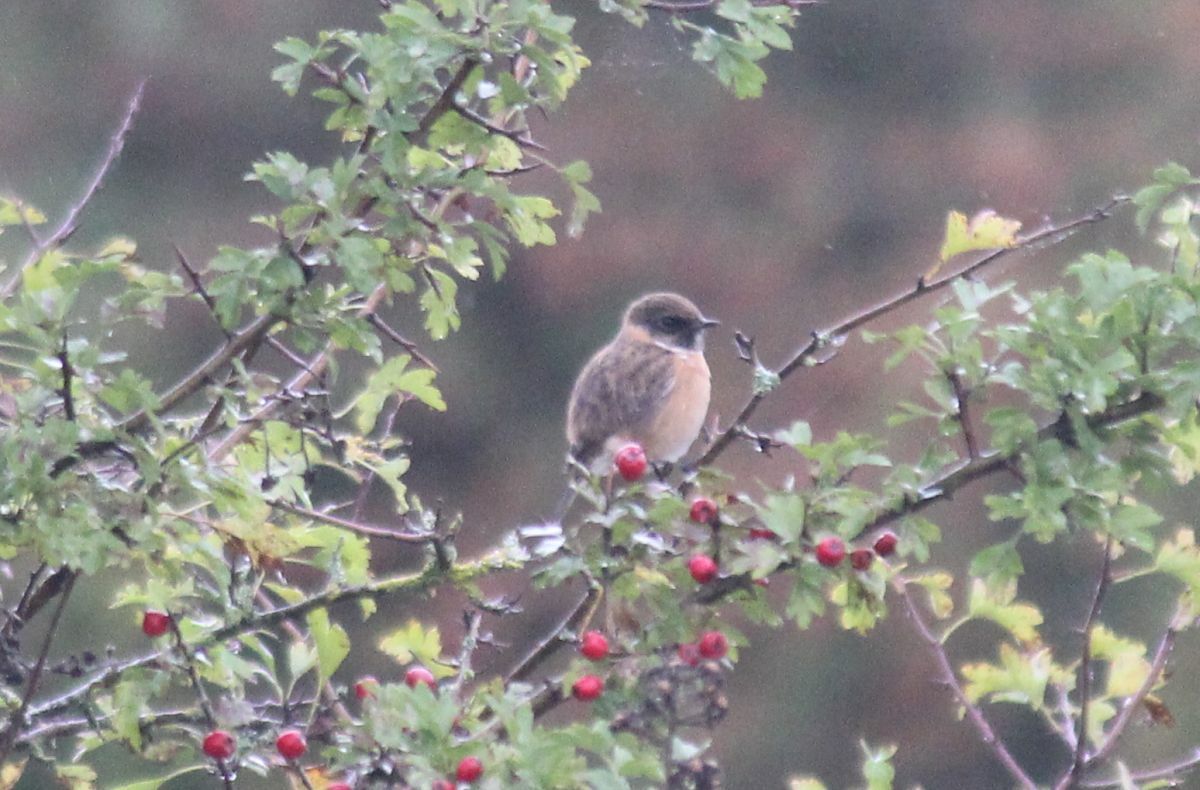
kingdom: Animalia
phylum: Chordata
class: Aves
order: Passeriformes
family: Muscicapidae
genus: Saxicola
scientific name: Saxicola rubicola
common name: European stonechat
